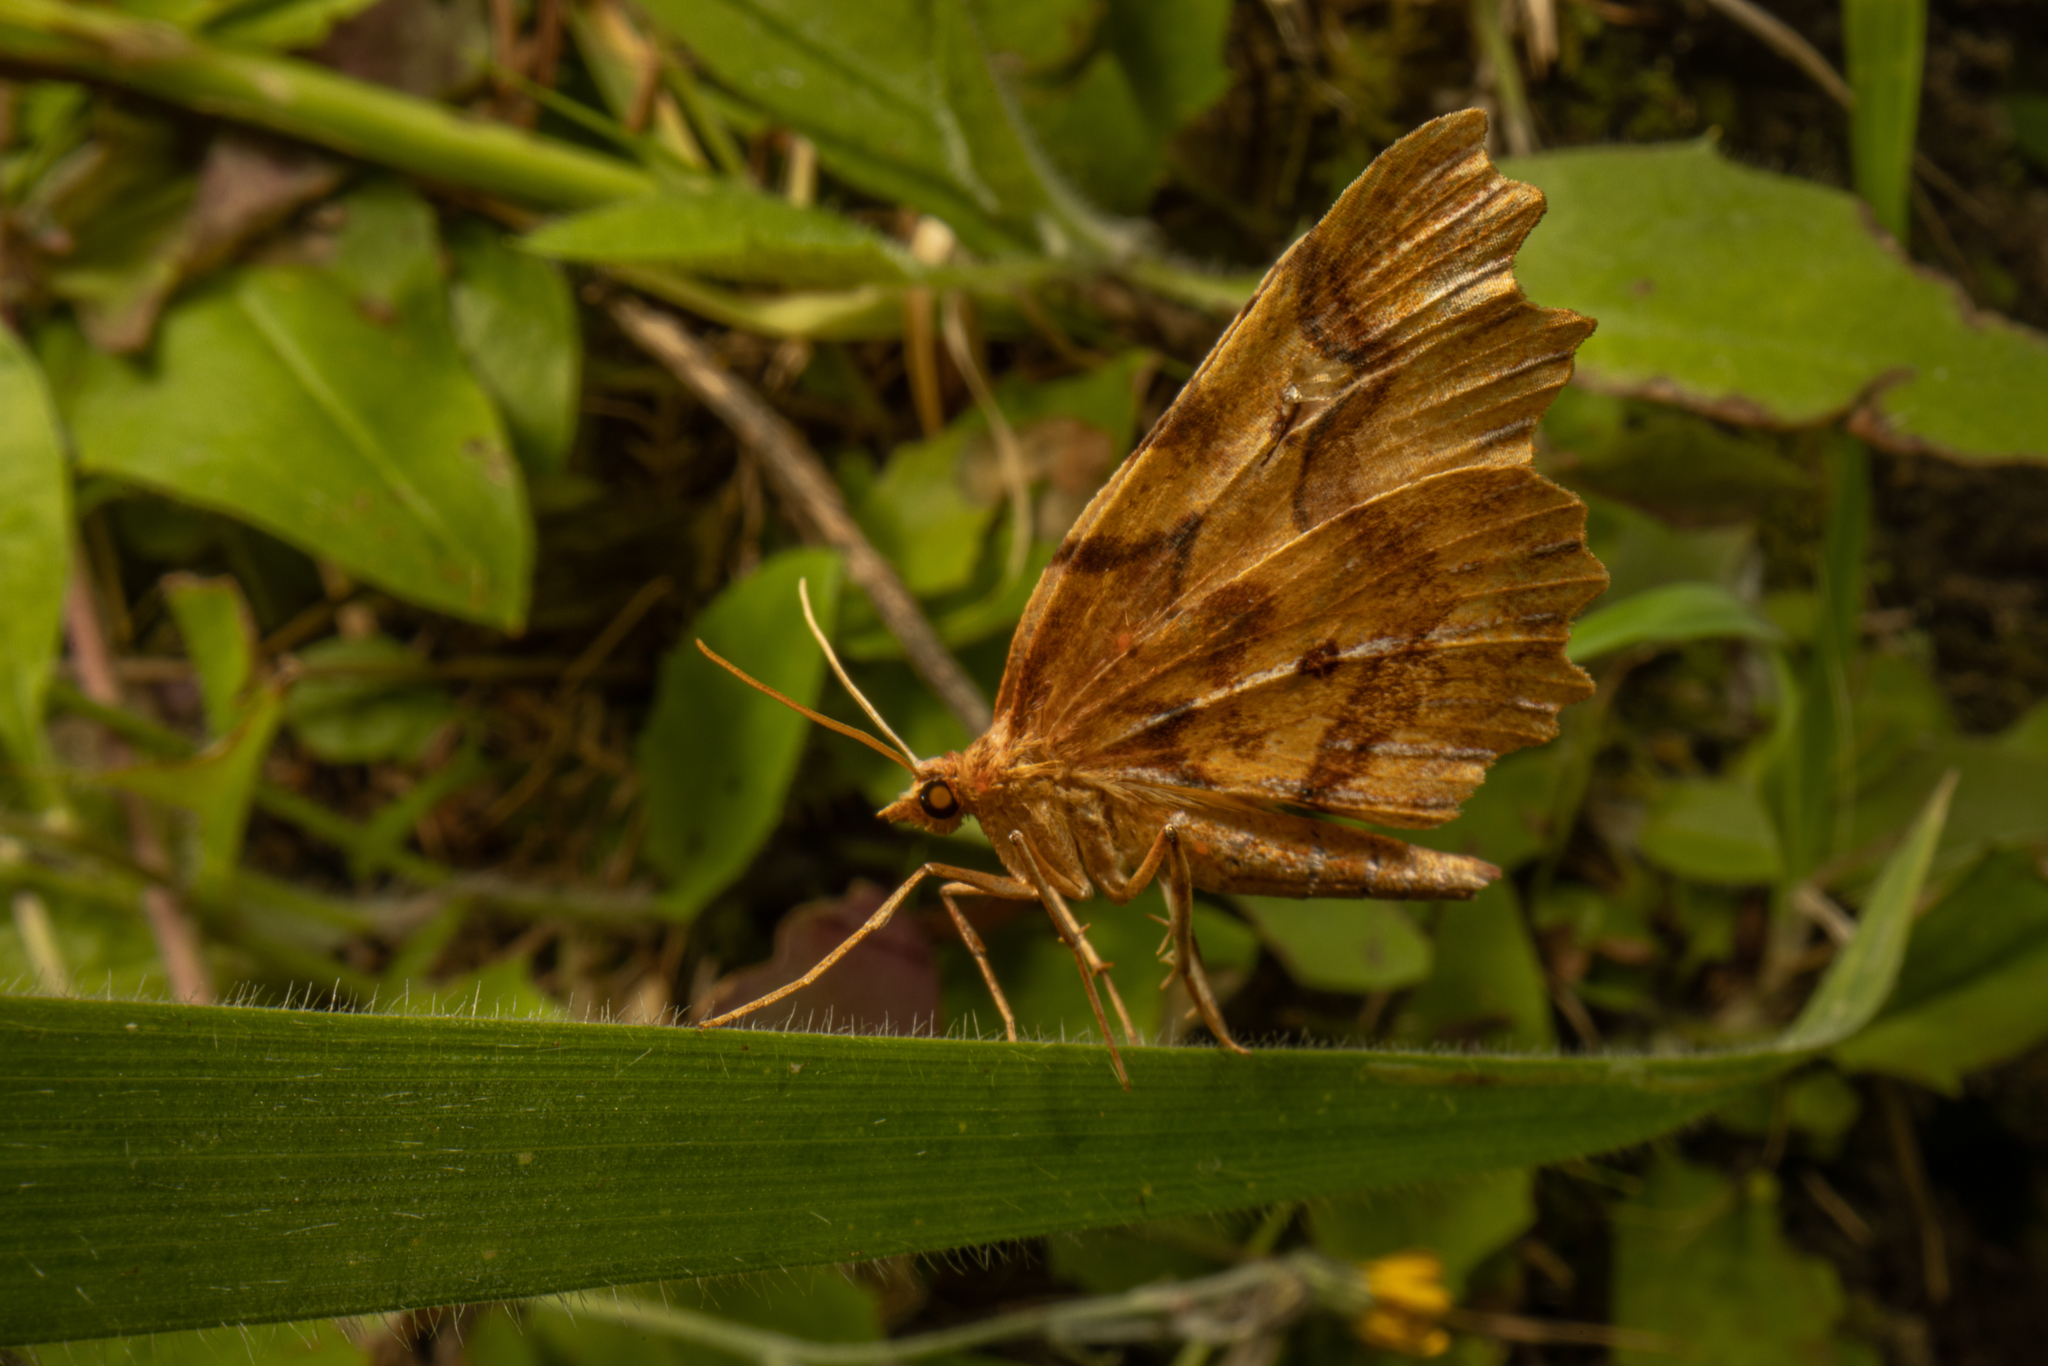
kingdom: Animalia
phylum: Arthropoda
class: Insecta
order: Lepidoptera
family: Geometridae
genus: Ischalis
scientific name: Ischalis fortinata
